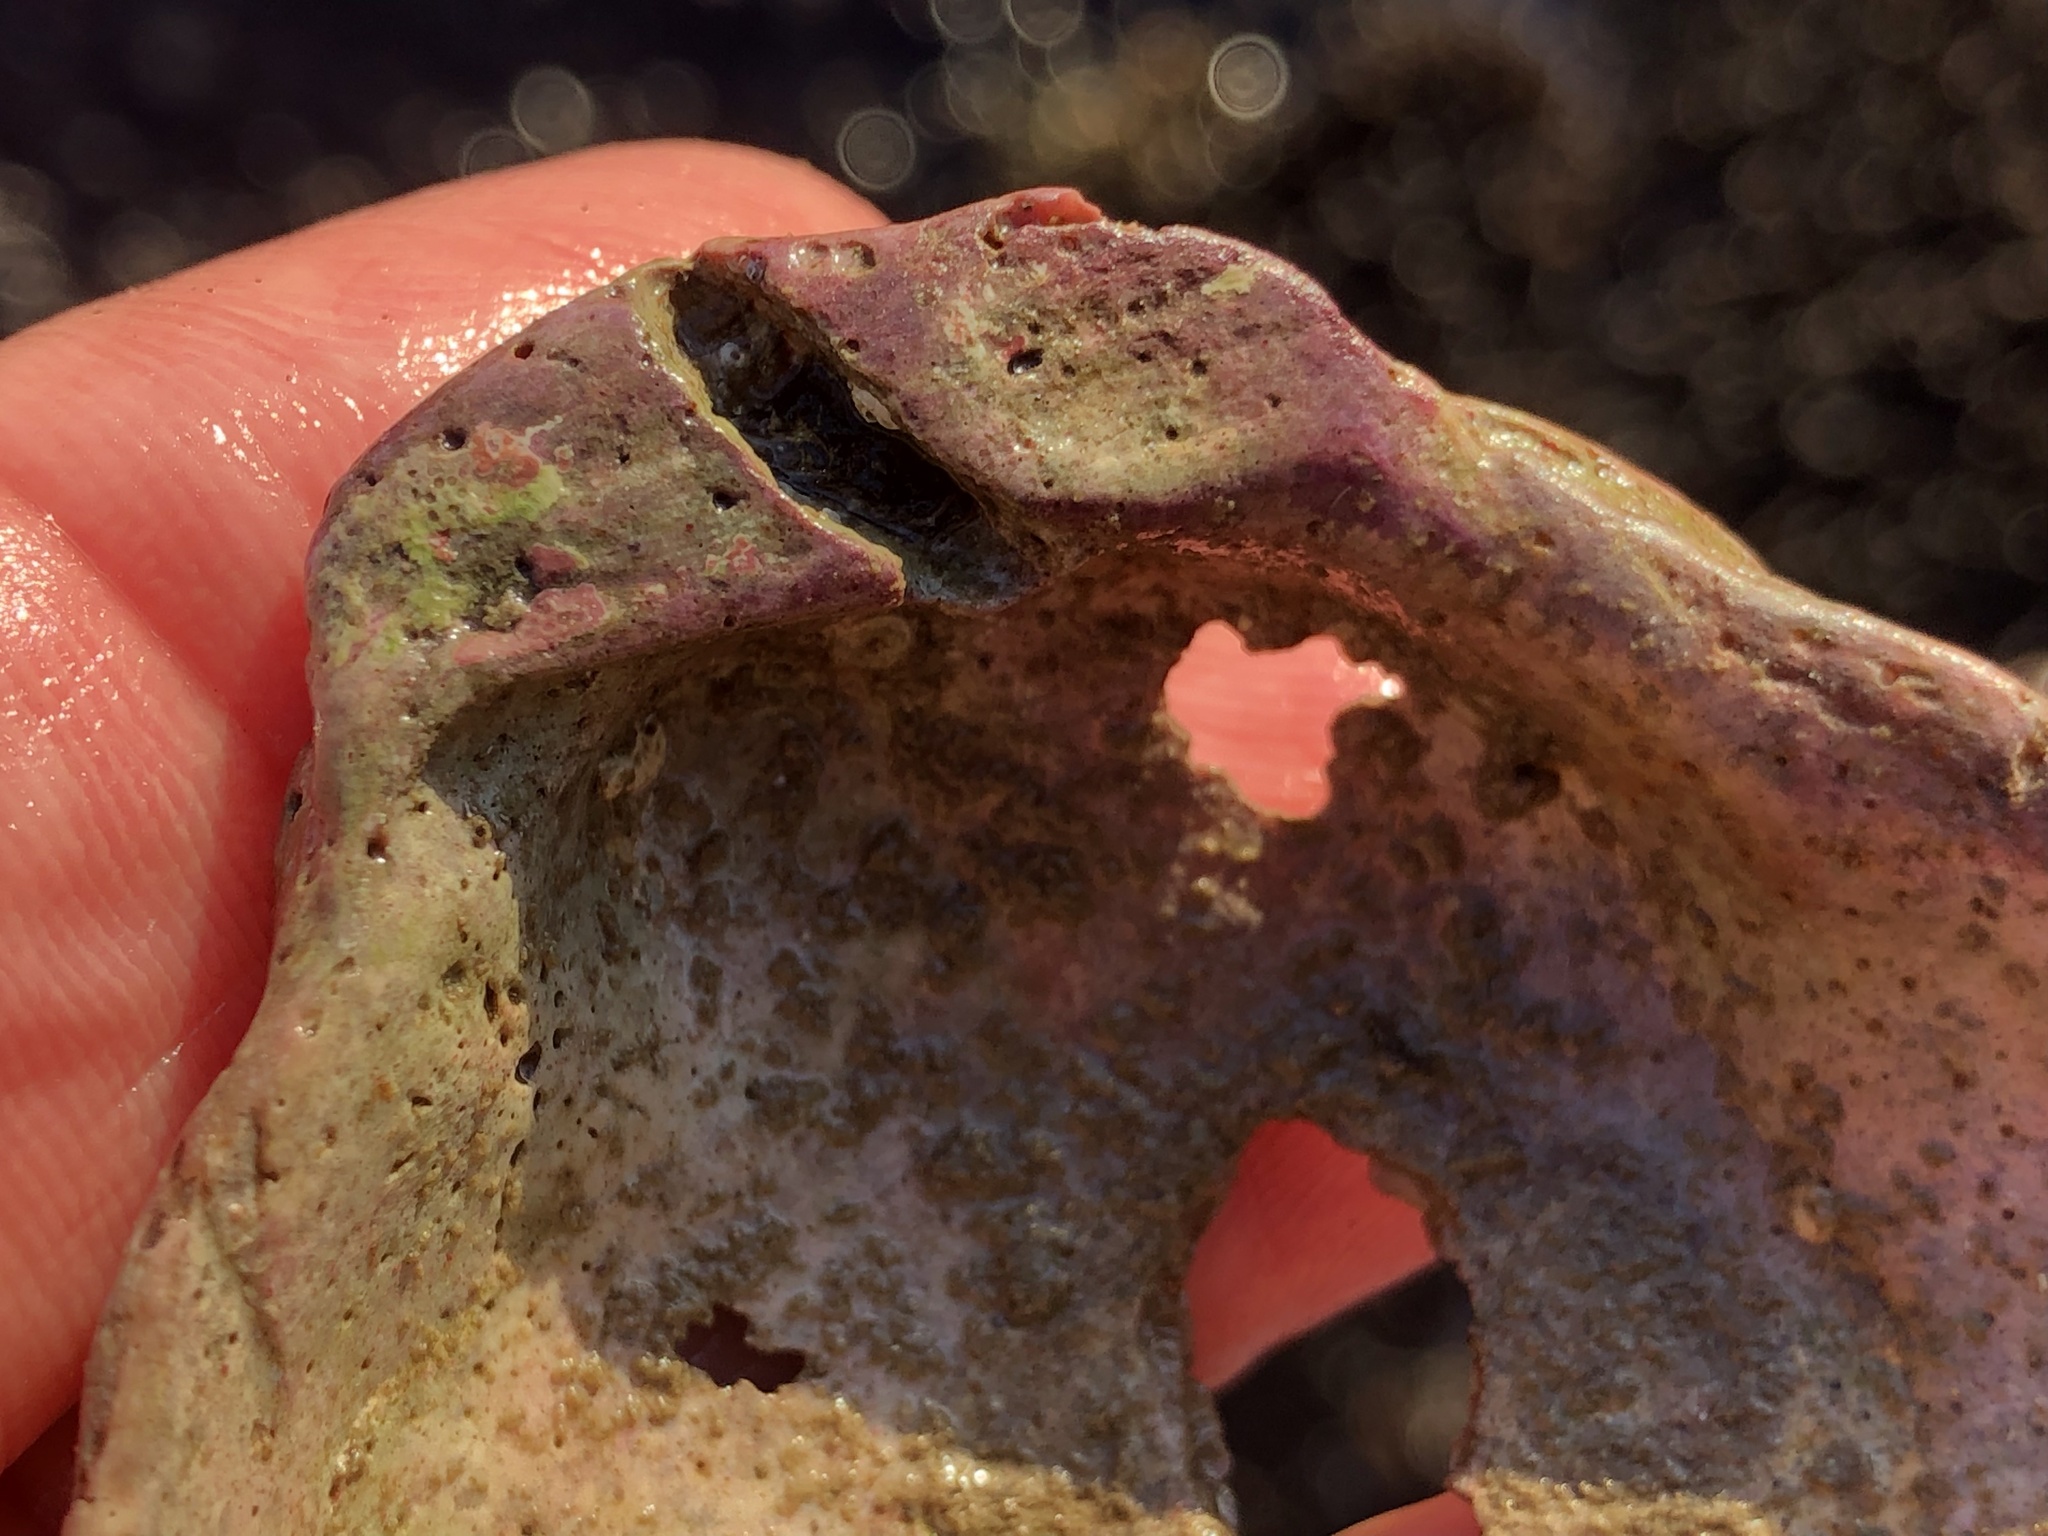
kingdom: Animalia
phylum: Mollusca
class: Bivalvia
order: Pectinida
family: Pectinidae
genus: Crassadoma
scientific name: Crassadoma gigantea
